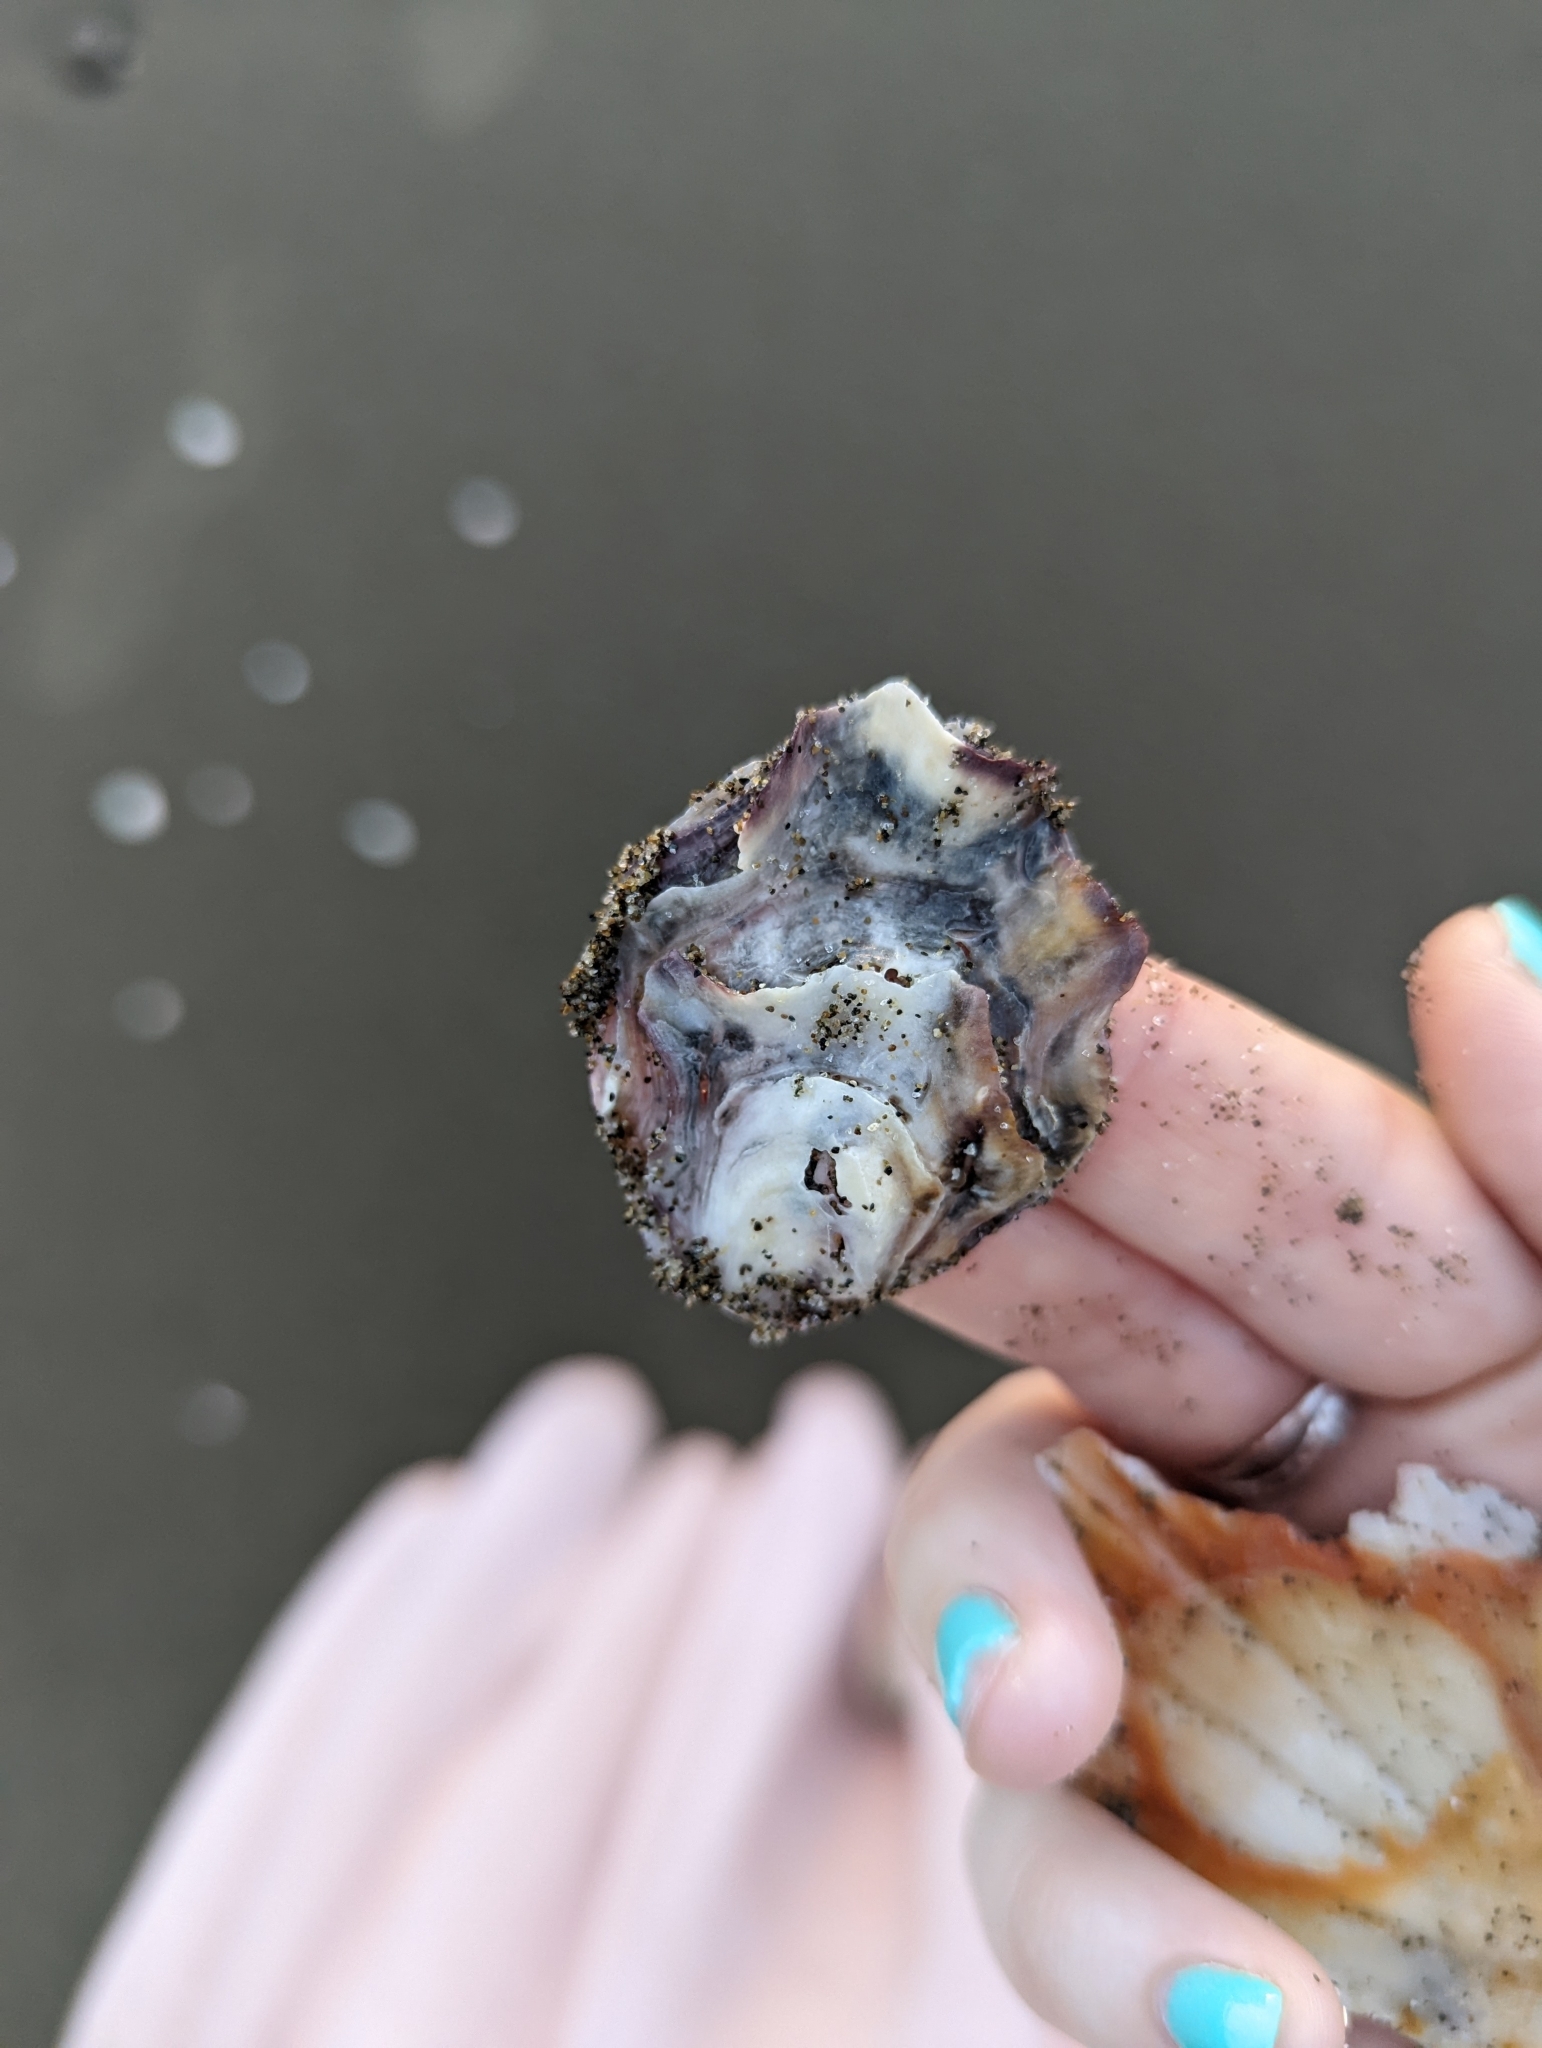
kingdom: Animalia
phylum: Mollusca
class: Bivalvia
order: Ostreida
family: Ostreidae
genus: Magallana
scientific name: Magallana gigas
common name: Pacific oyster
